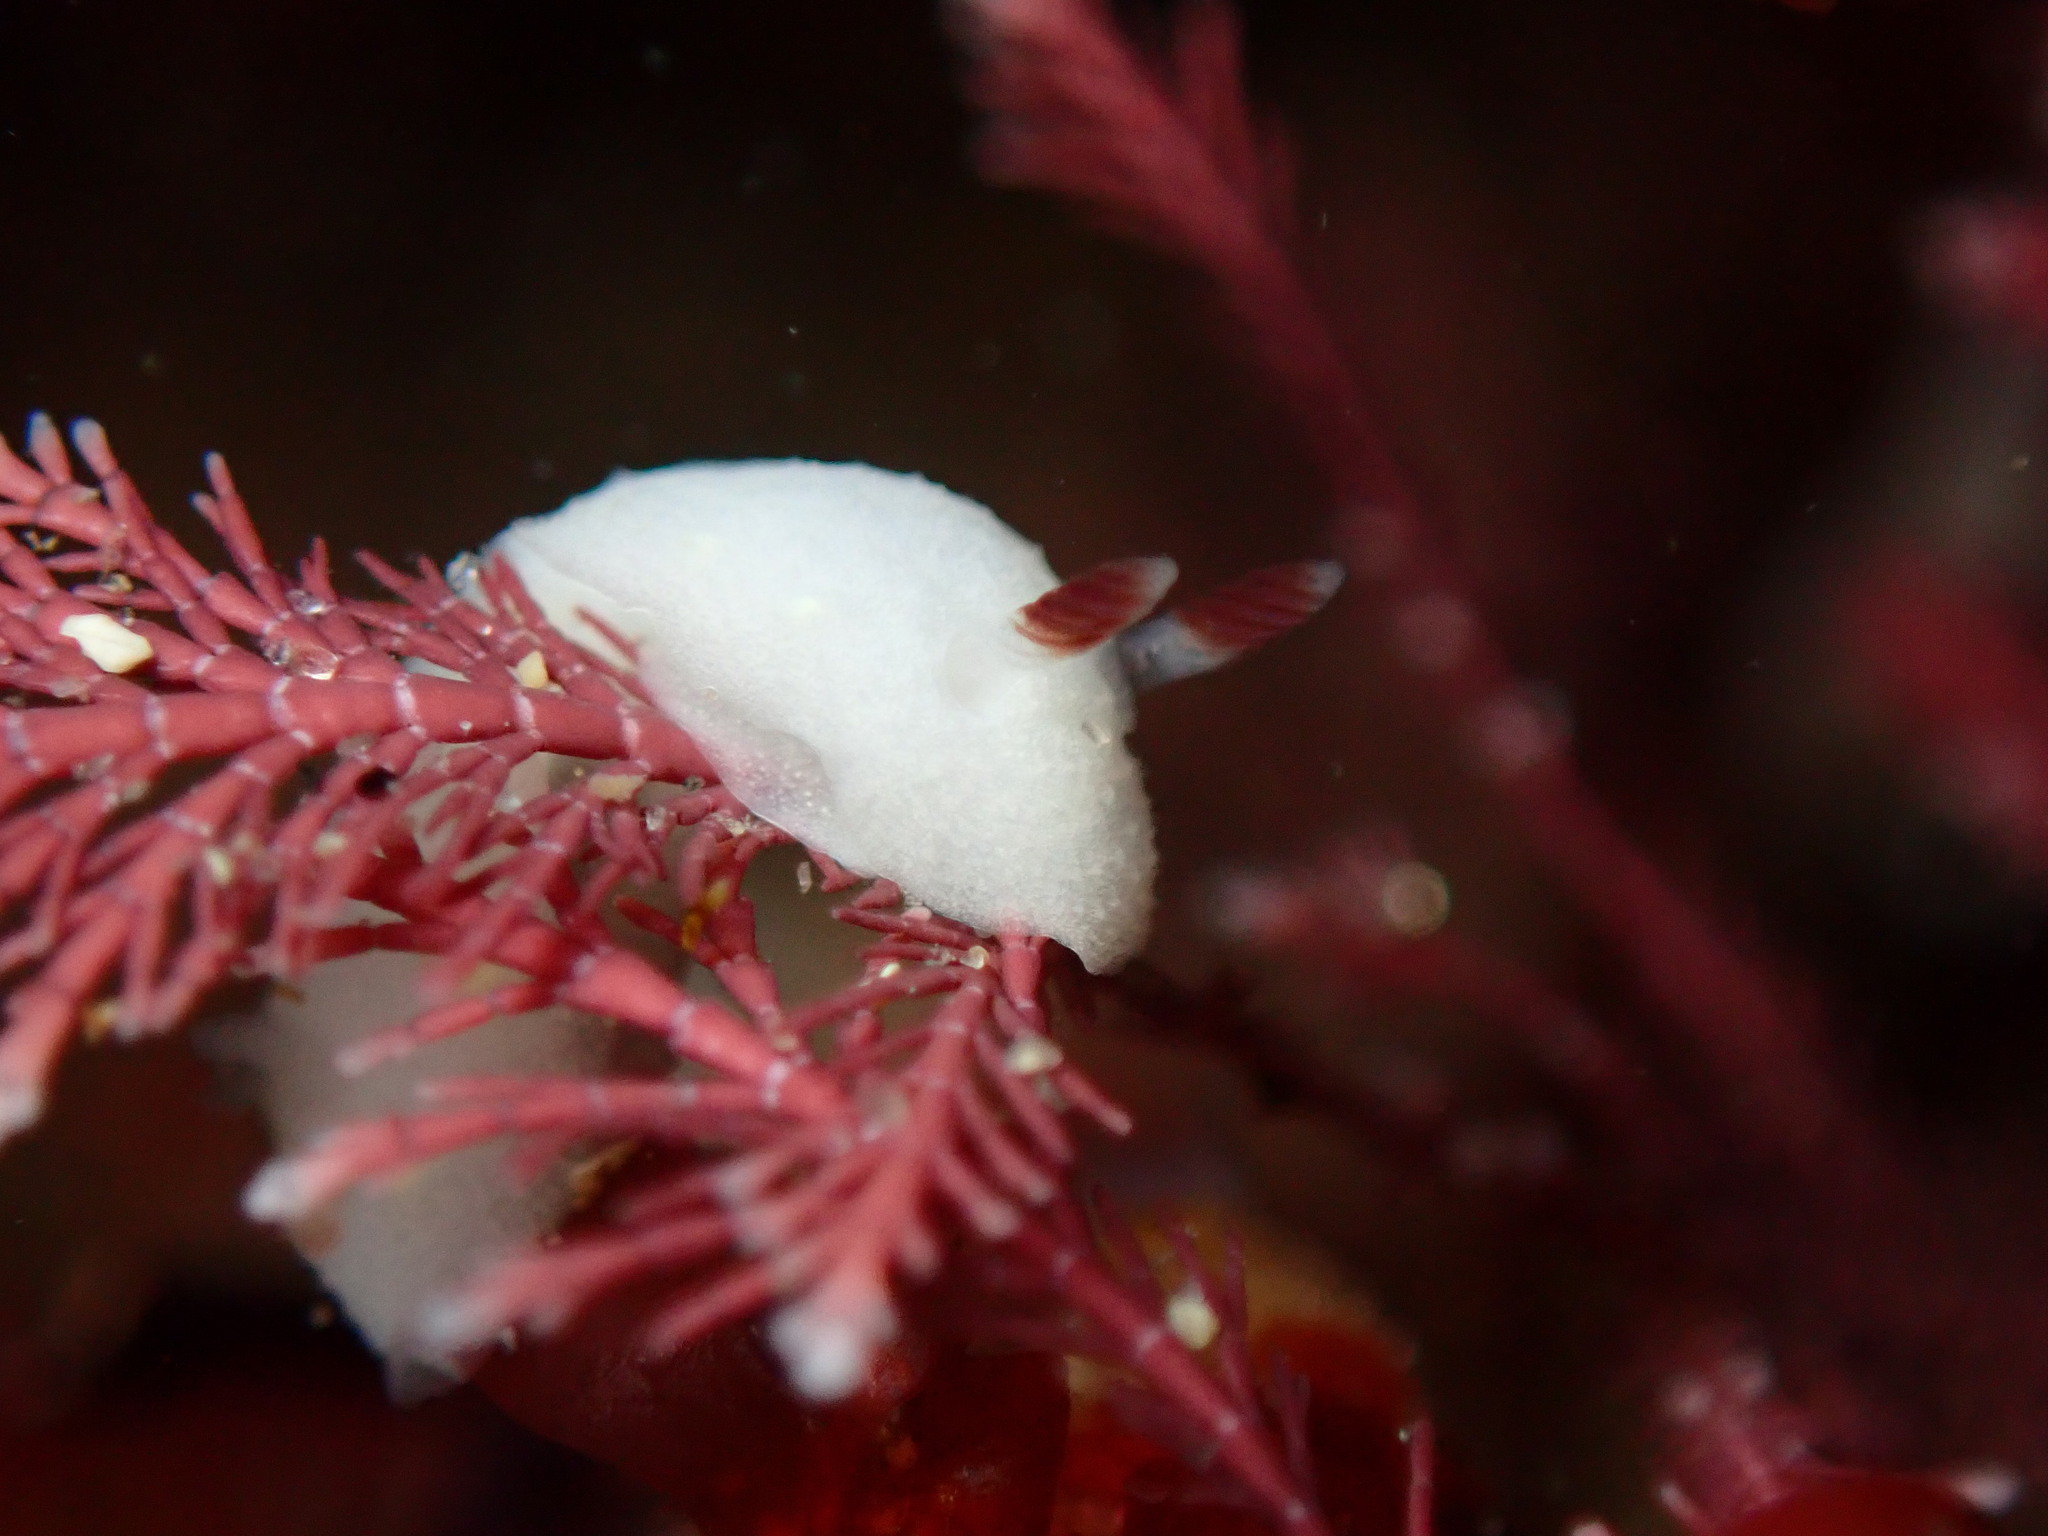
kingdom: Animalia
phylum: Mollusca
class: Gastropoda
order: Nudibranchia
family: Cadlinidae
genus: Cadlina
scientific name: Cadlina flavomaculata
